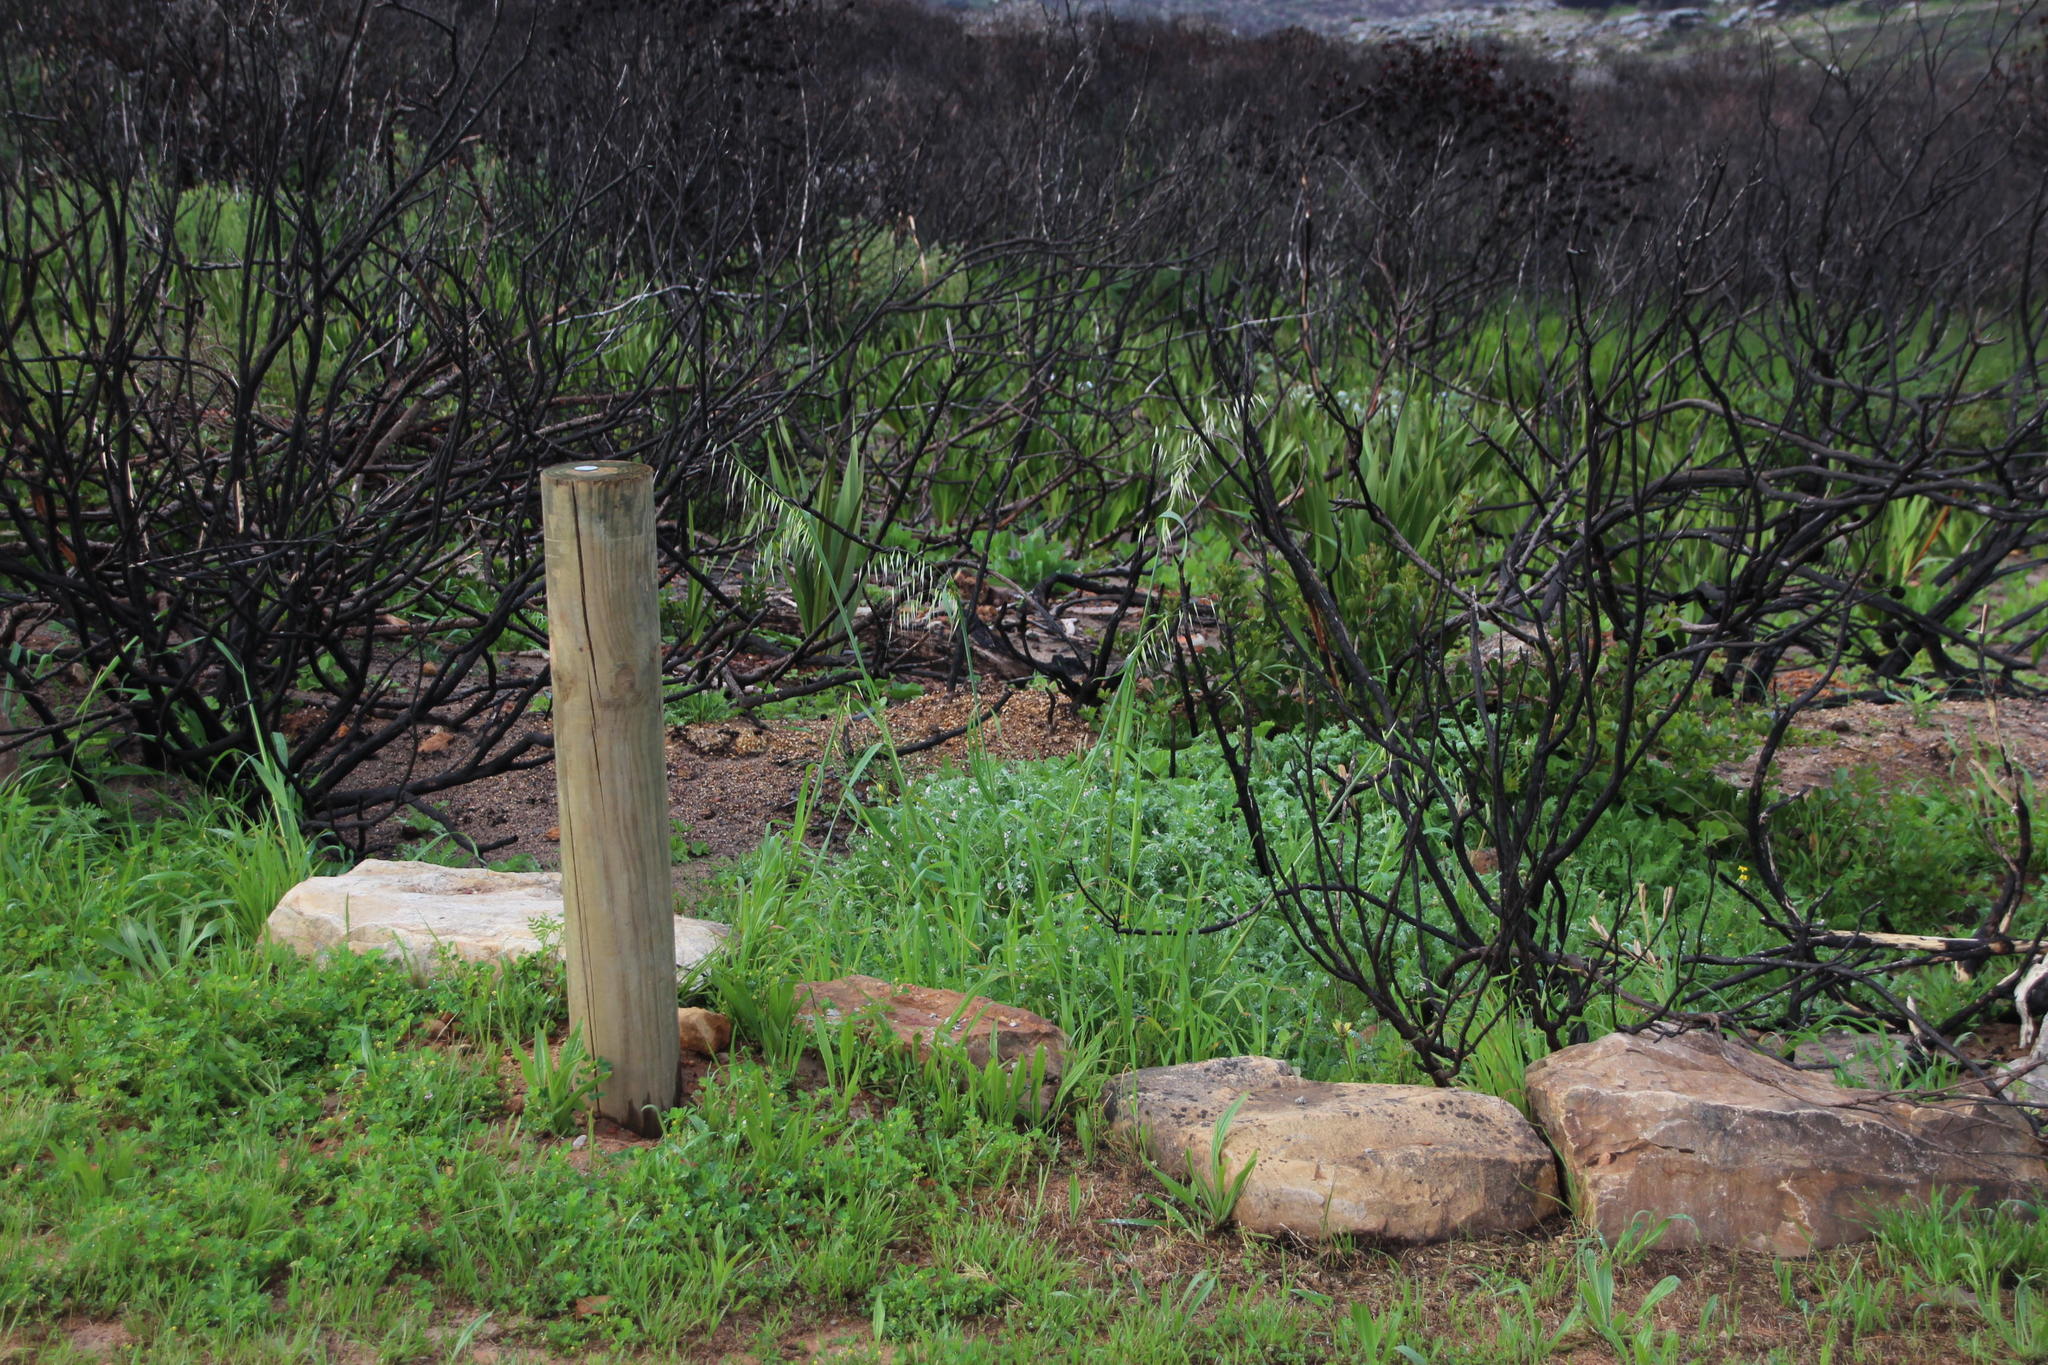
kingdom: Plantae
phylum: Tracheophyta
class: Liliopsida
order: Poales
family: Poaceae
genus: Avena
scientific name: Avena fatua
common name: Wild oat
